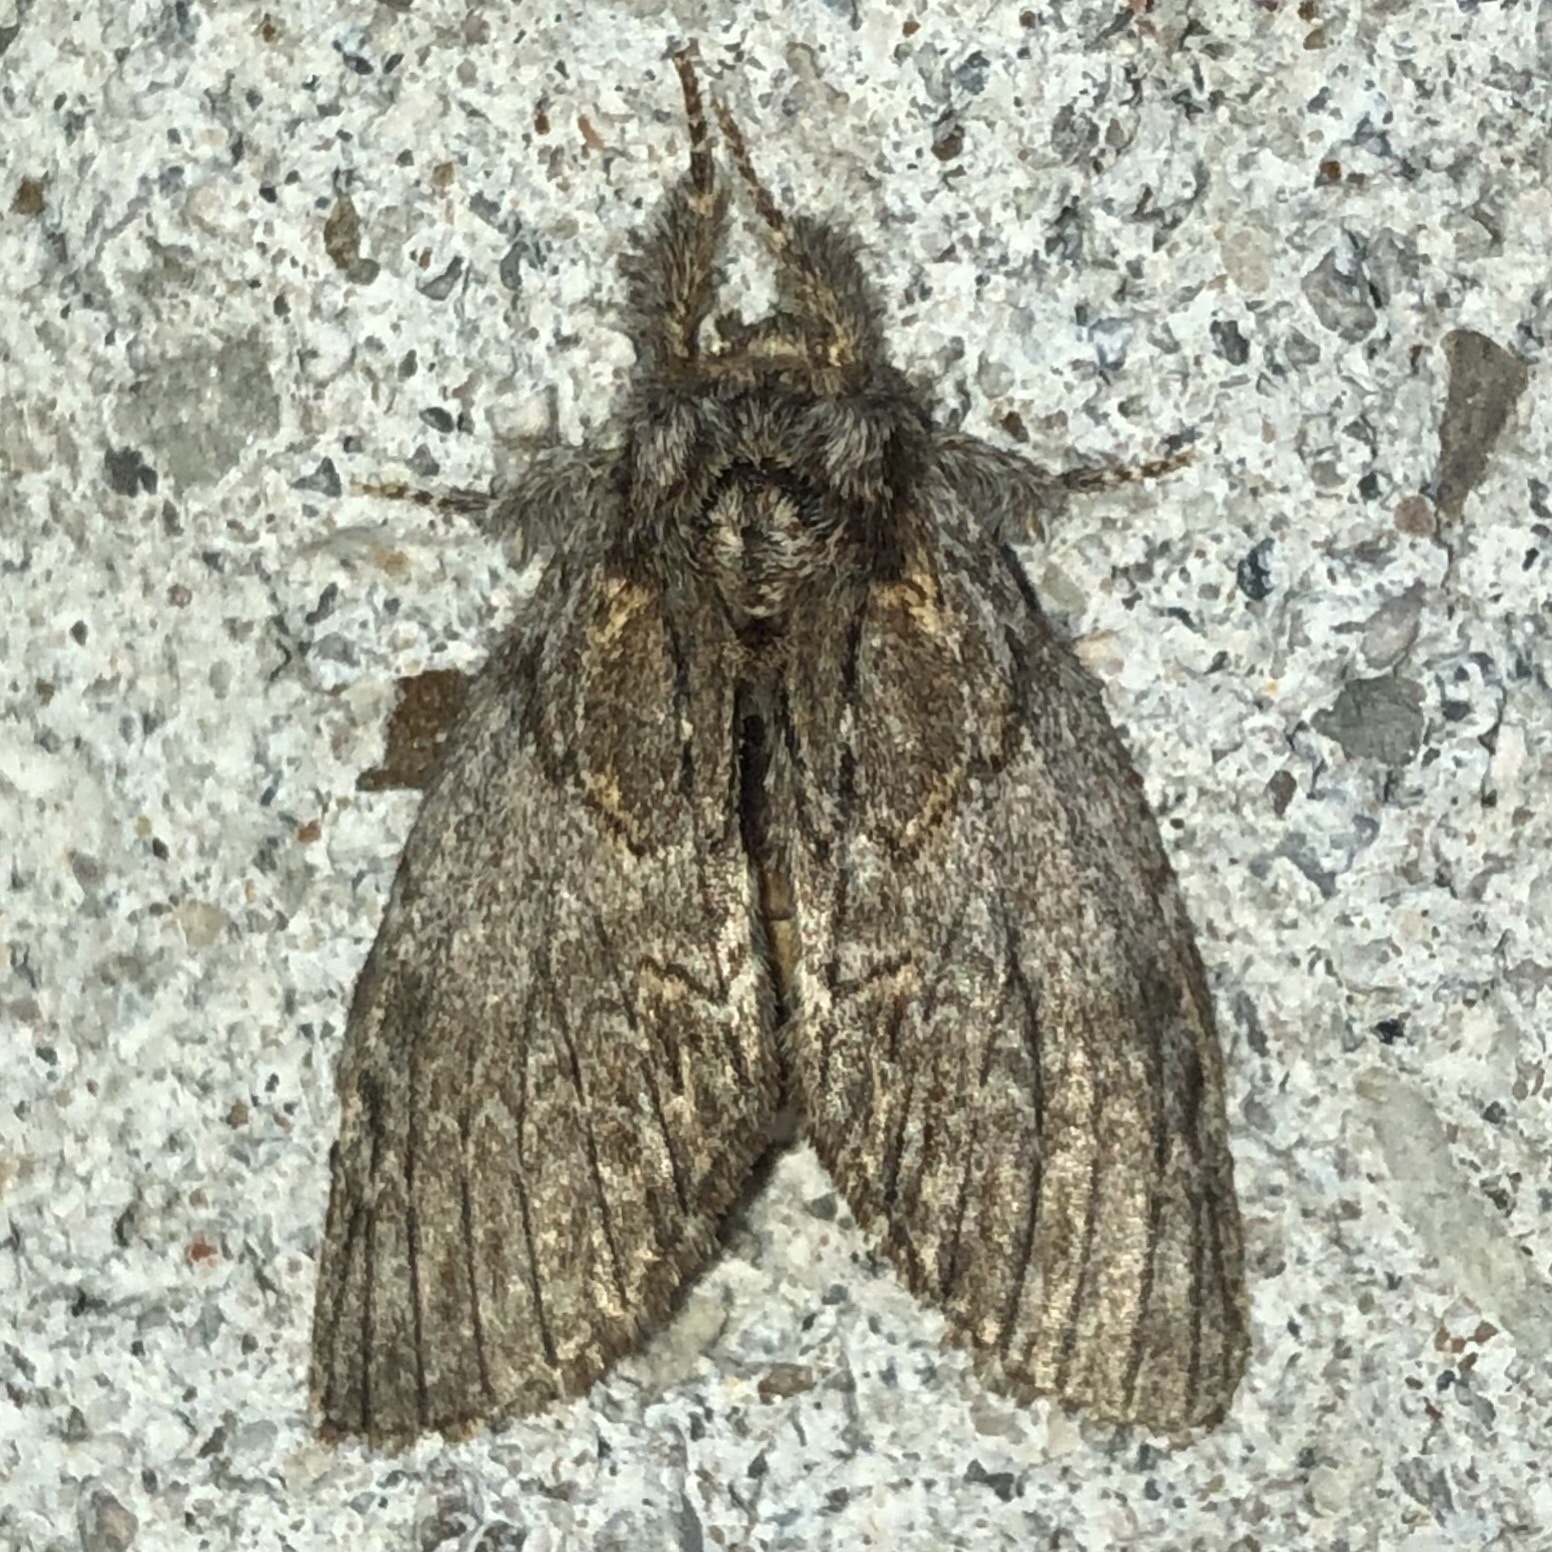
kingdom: Animalia
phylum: Arthropoda
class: Insecta
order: Lepidoptera
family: Notodontidae
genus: Peridea
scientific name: Peridea basitriens
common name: Oval-based prominent
